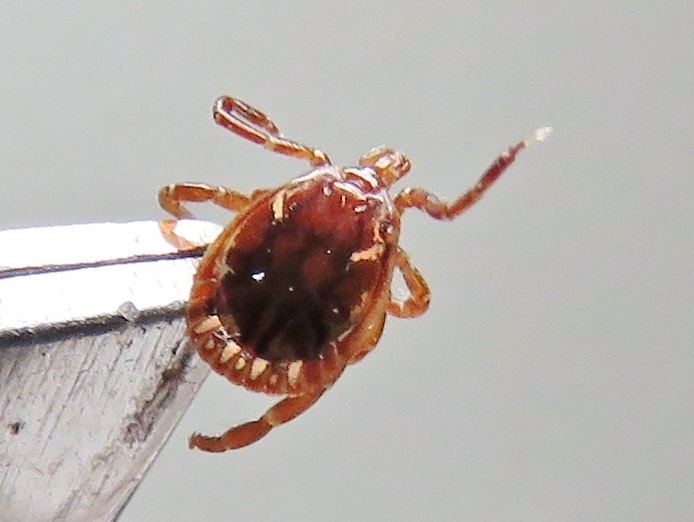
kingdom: Animalia
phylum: Arthropoda
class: Arachnida
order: Ixodida
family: Ixodidae
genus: Amblyomma
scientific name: Amblyomma americanum
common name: Lone star tick
